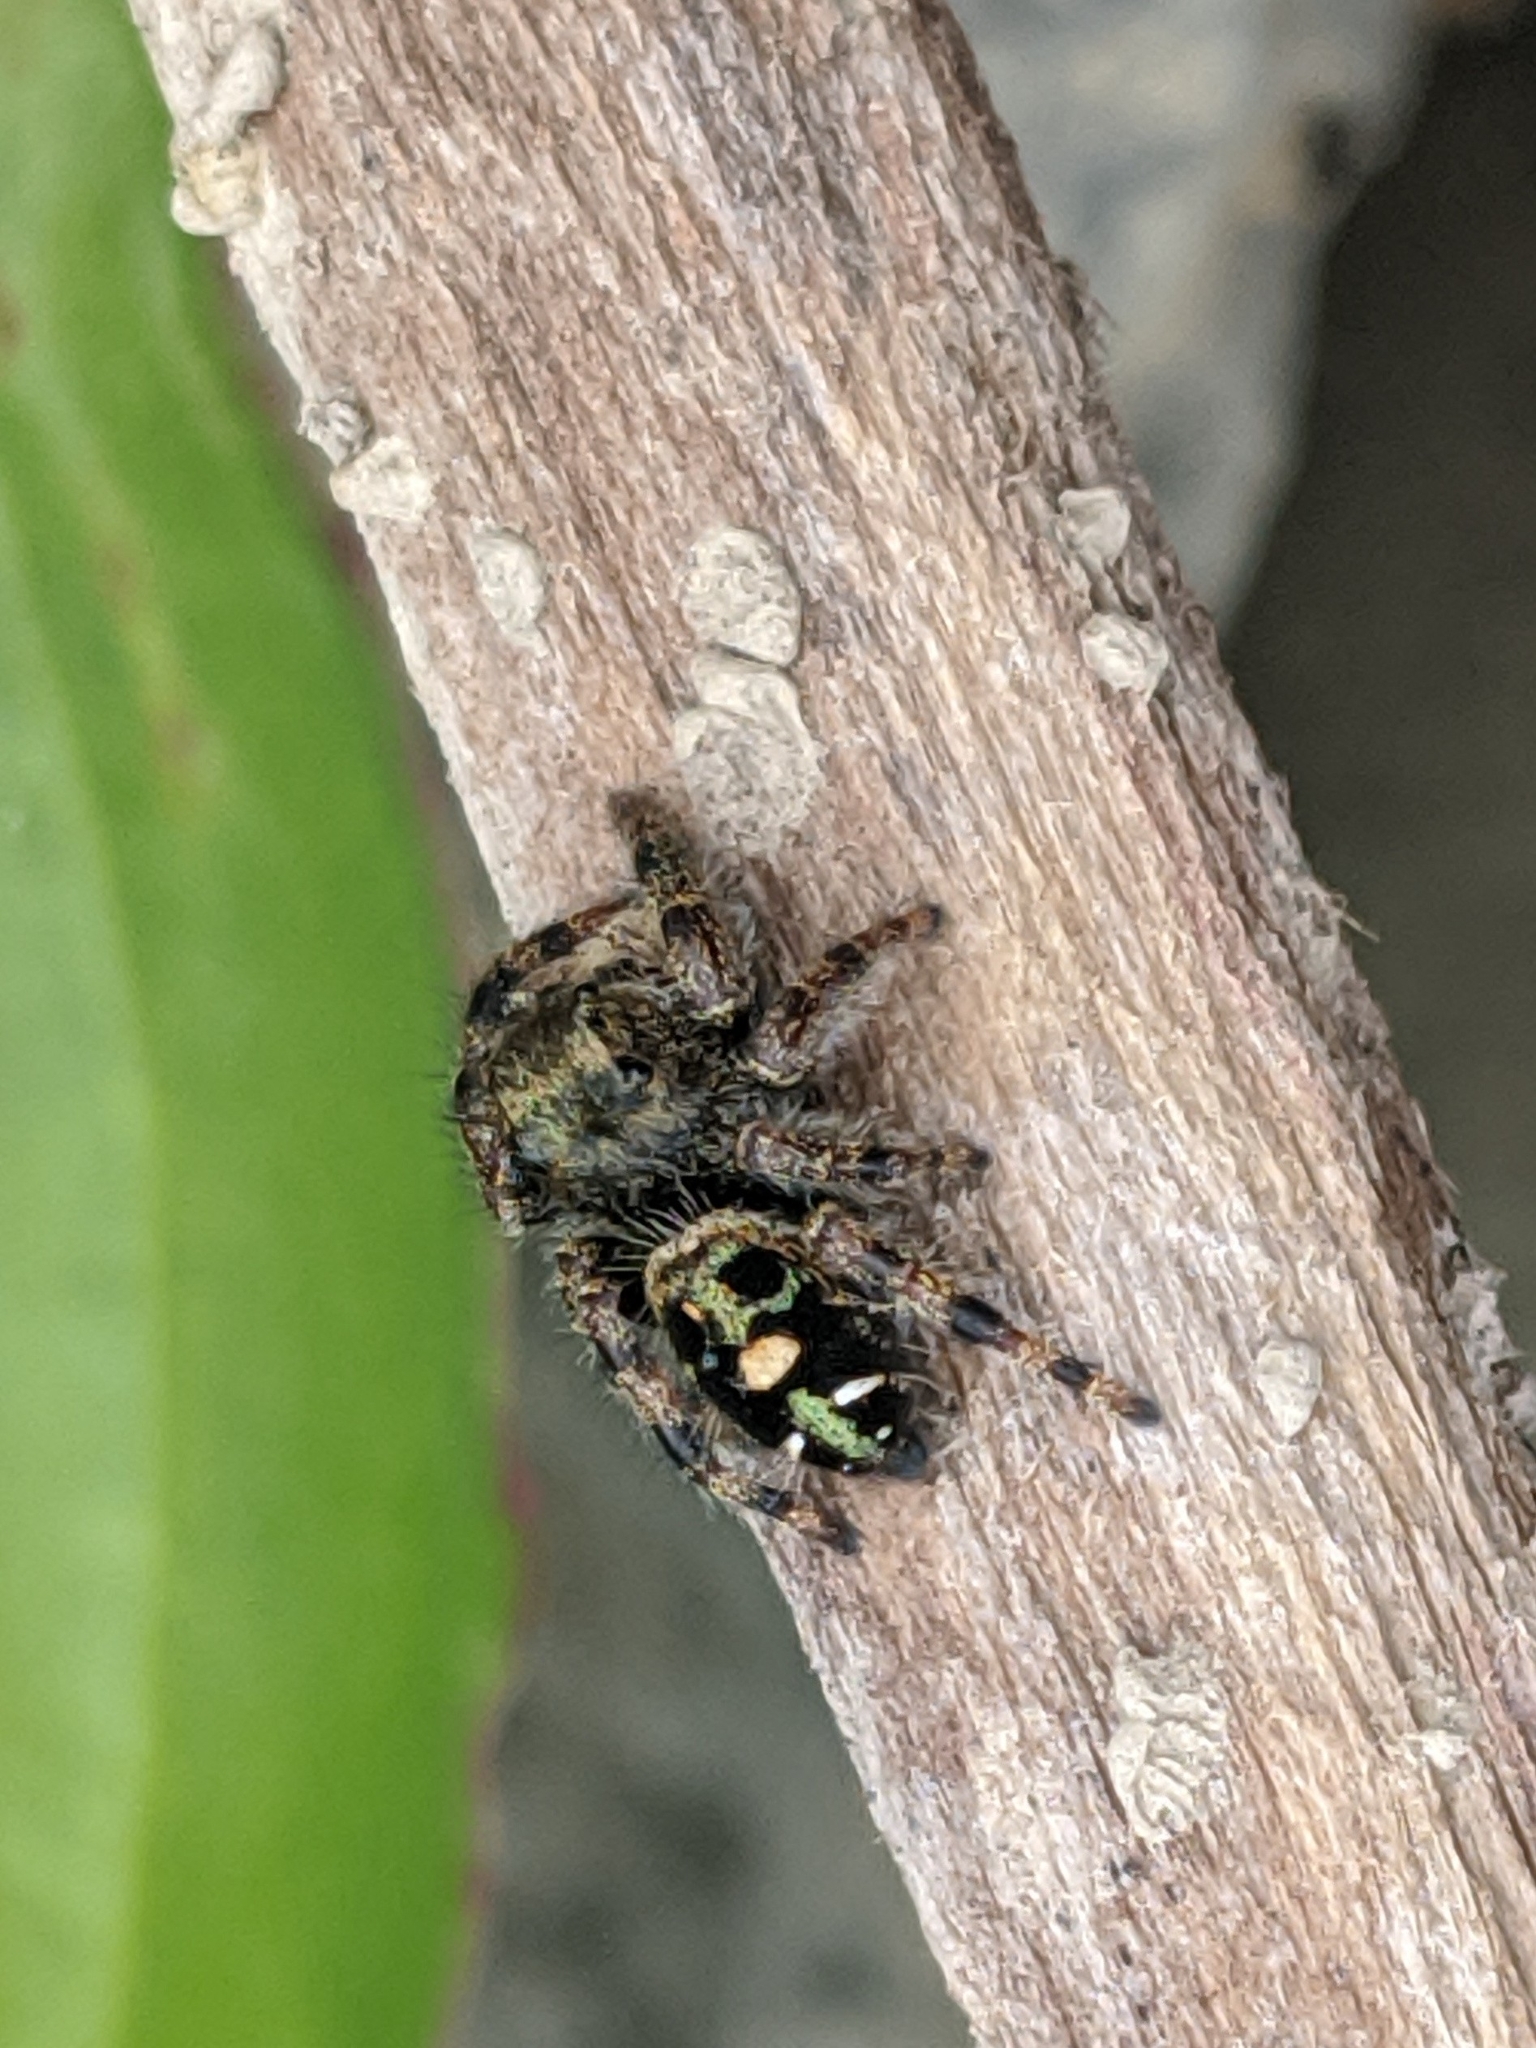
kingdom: Animalia
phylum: Arthropoda
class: Arachnida
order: Araneae
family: Salticidae
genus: Phidippus
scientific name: Phidippus audax
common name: Bold jumper
